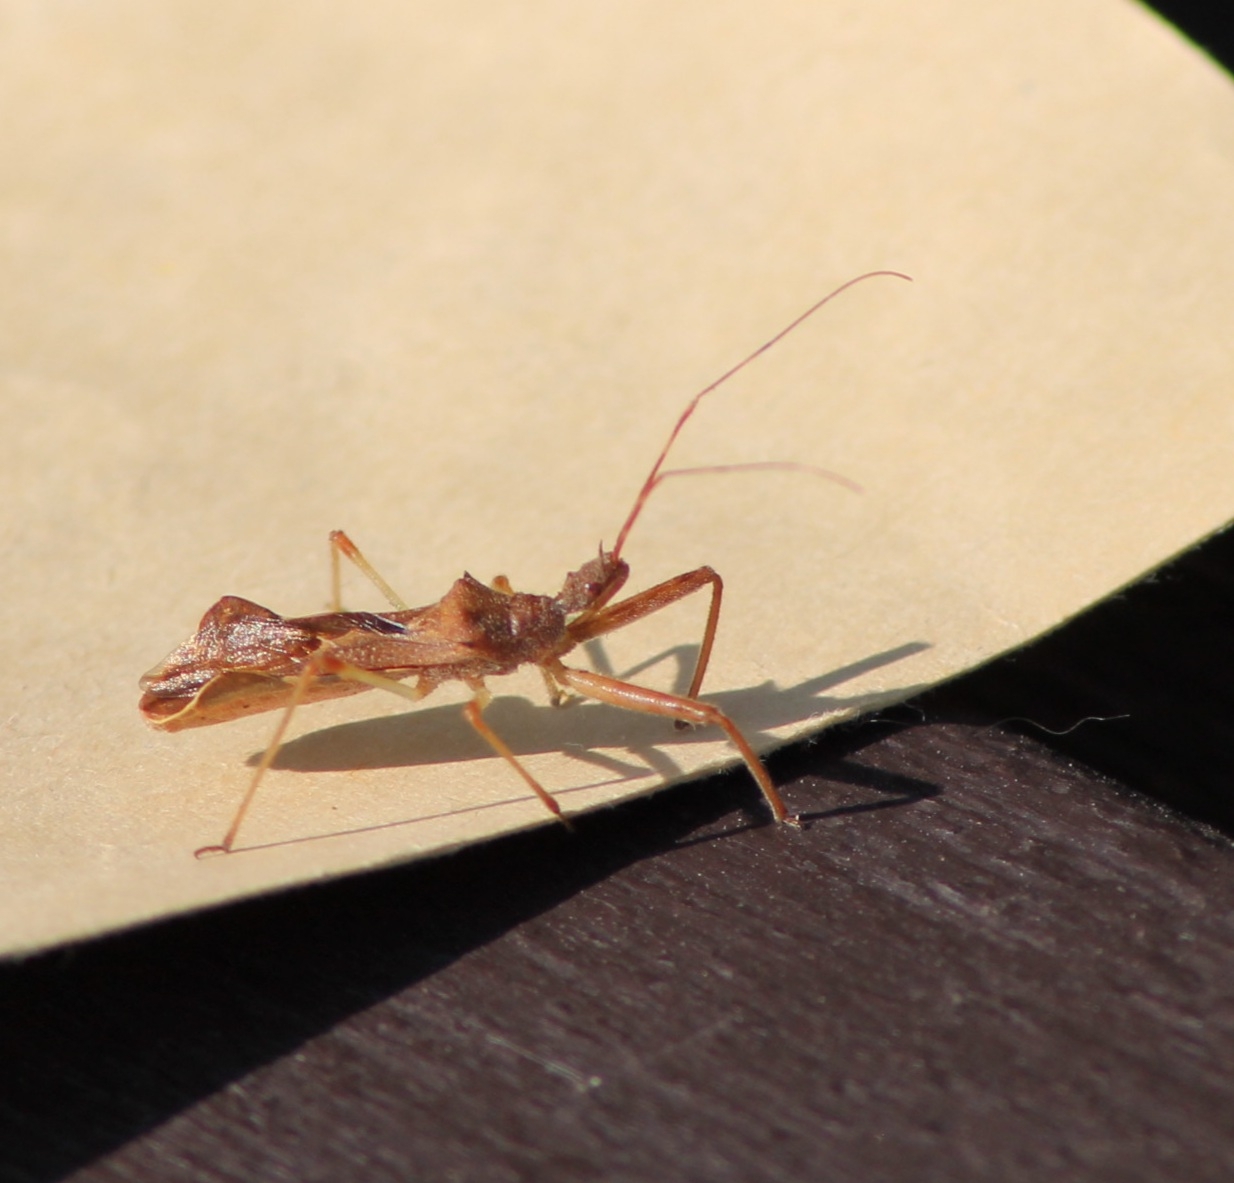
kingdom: Animalia
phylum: Arthropoda
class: Insecta
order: Hemiptera
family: Reduviidae
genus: Nagusta
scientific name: Nagusta goedelii
